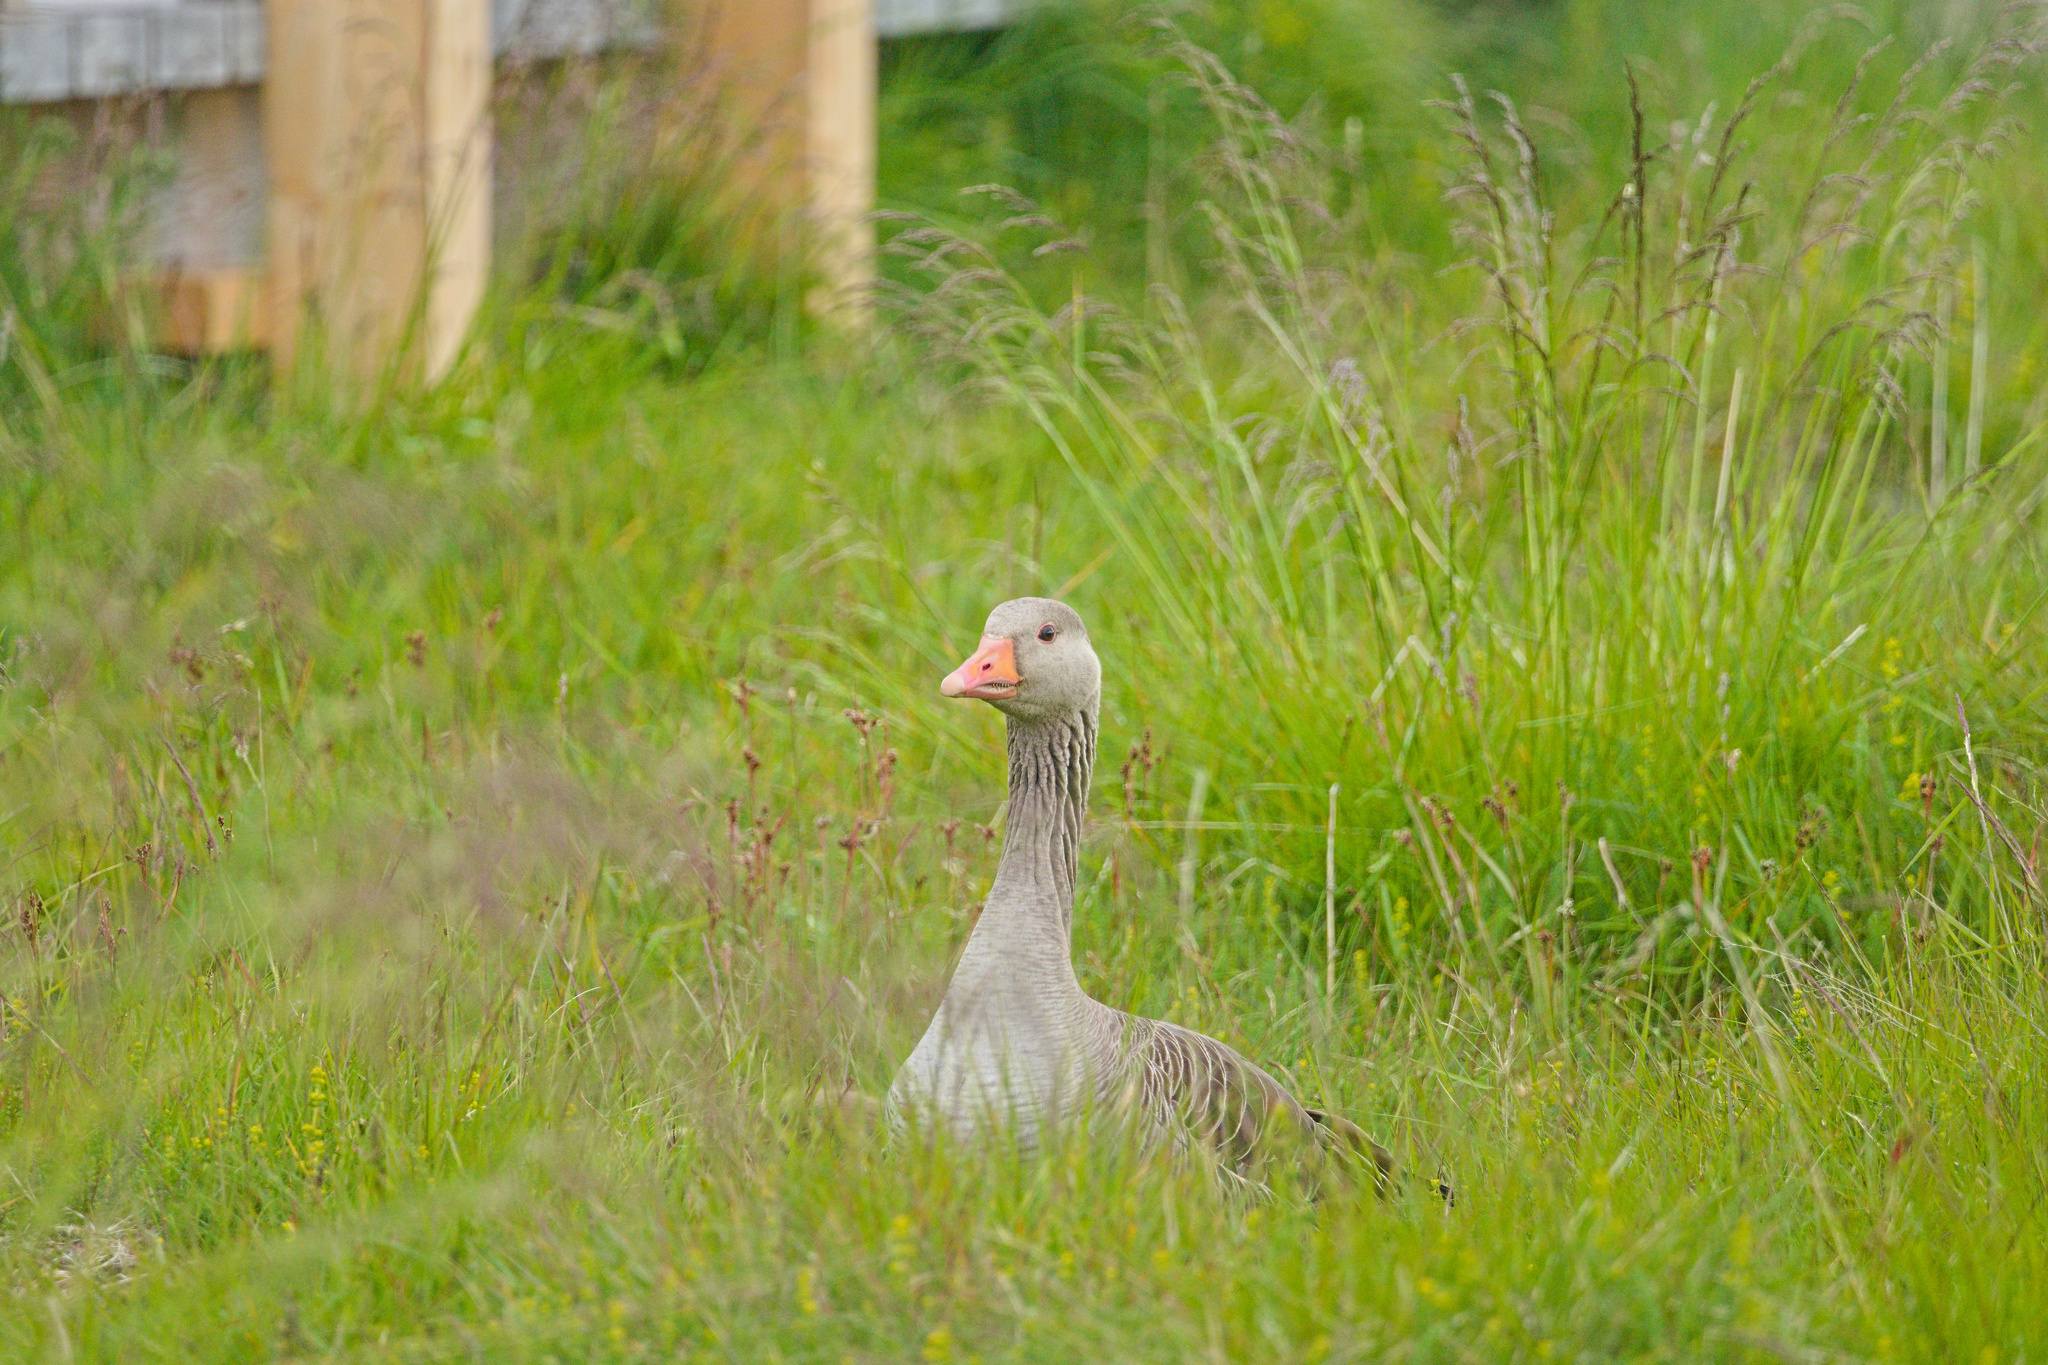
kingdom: Animalia
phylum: Chordata
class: Aves
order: Anseriformes
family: Anatidae
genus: Anser
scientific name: Anser anser
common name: Greylag goose
